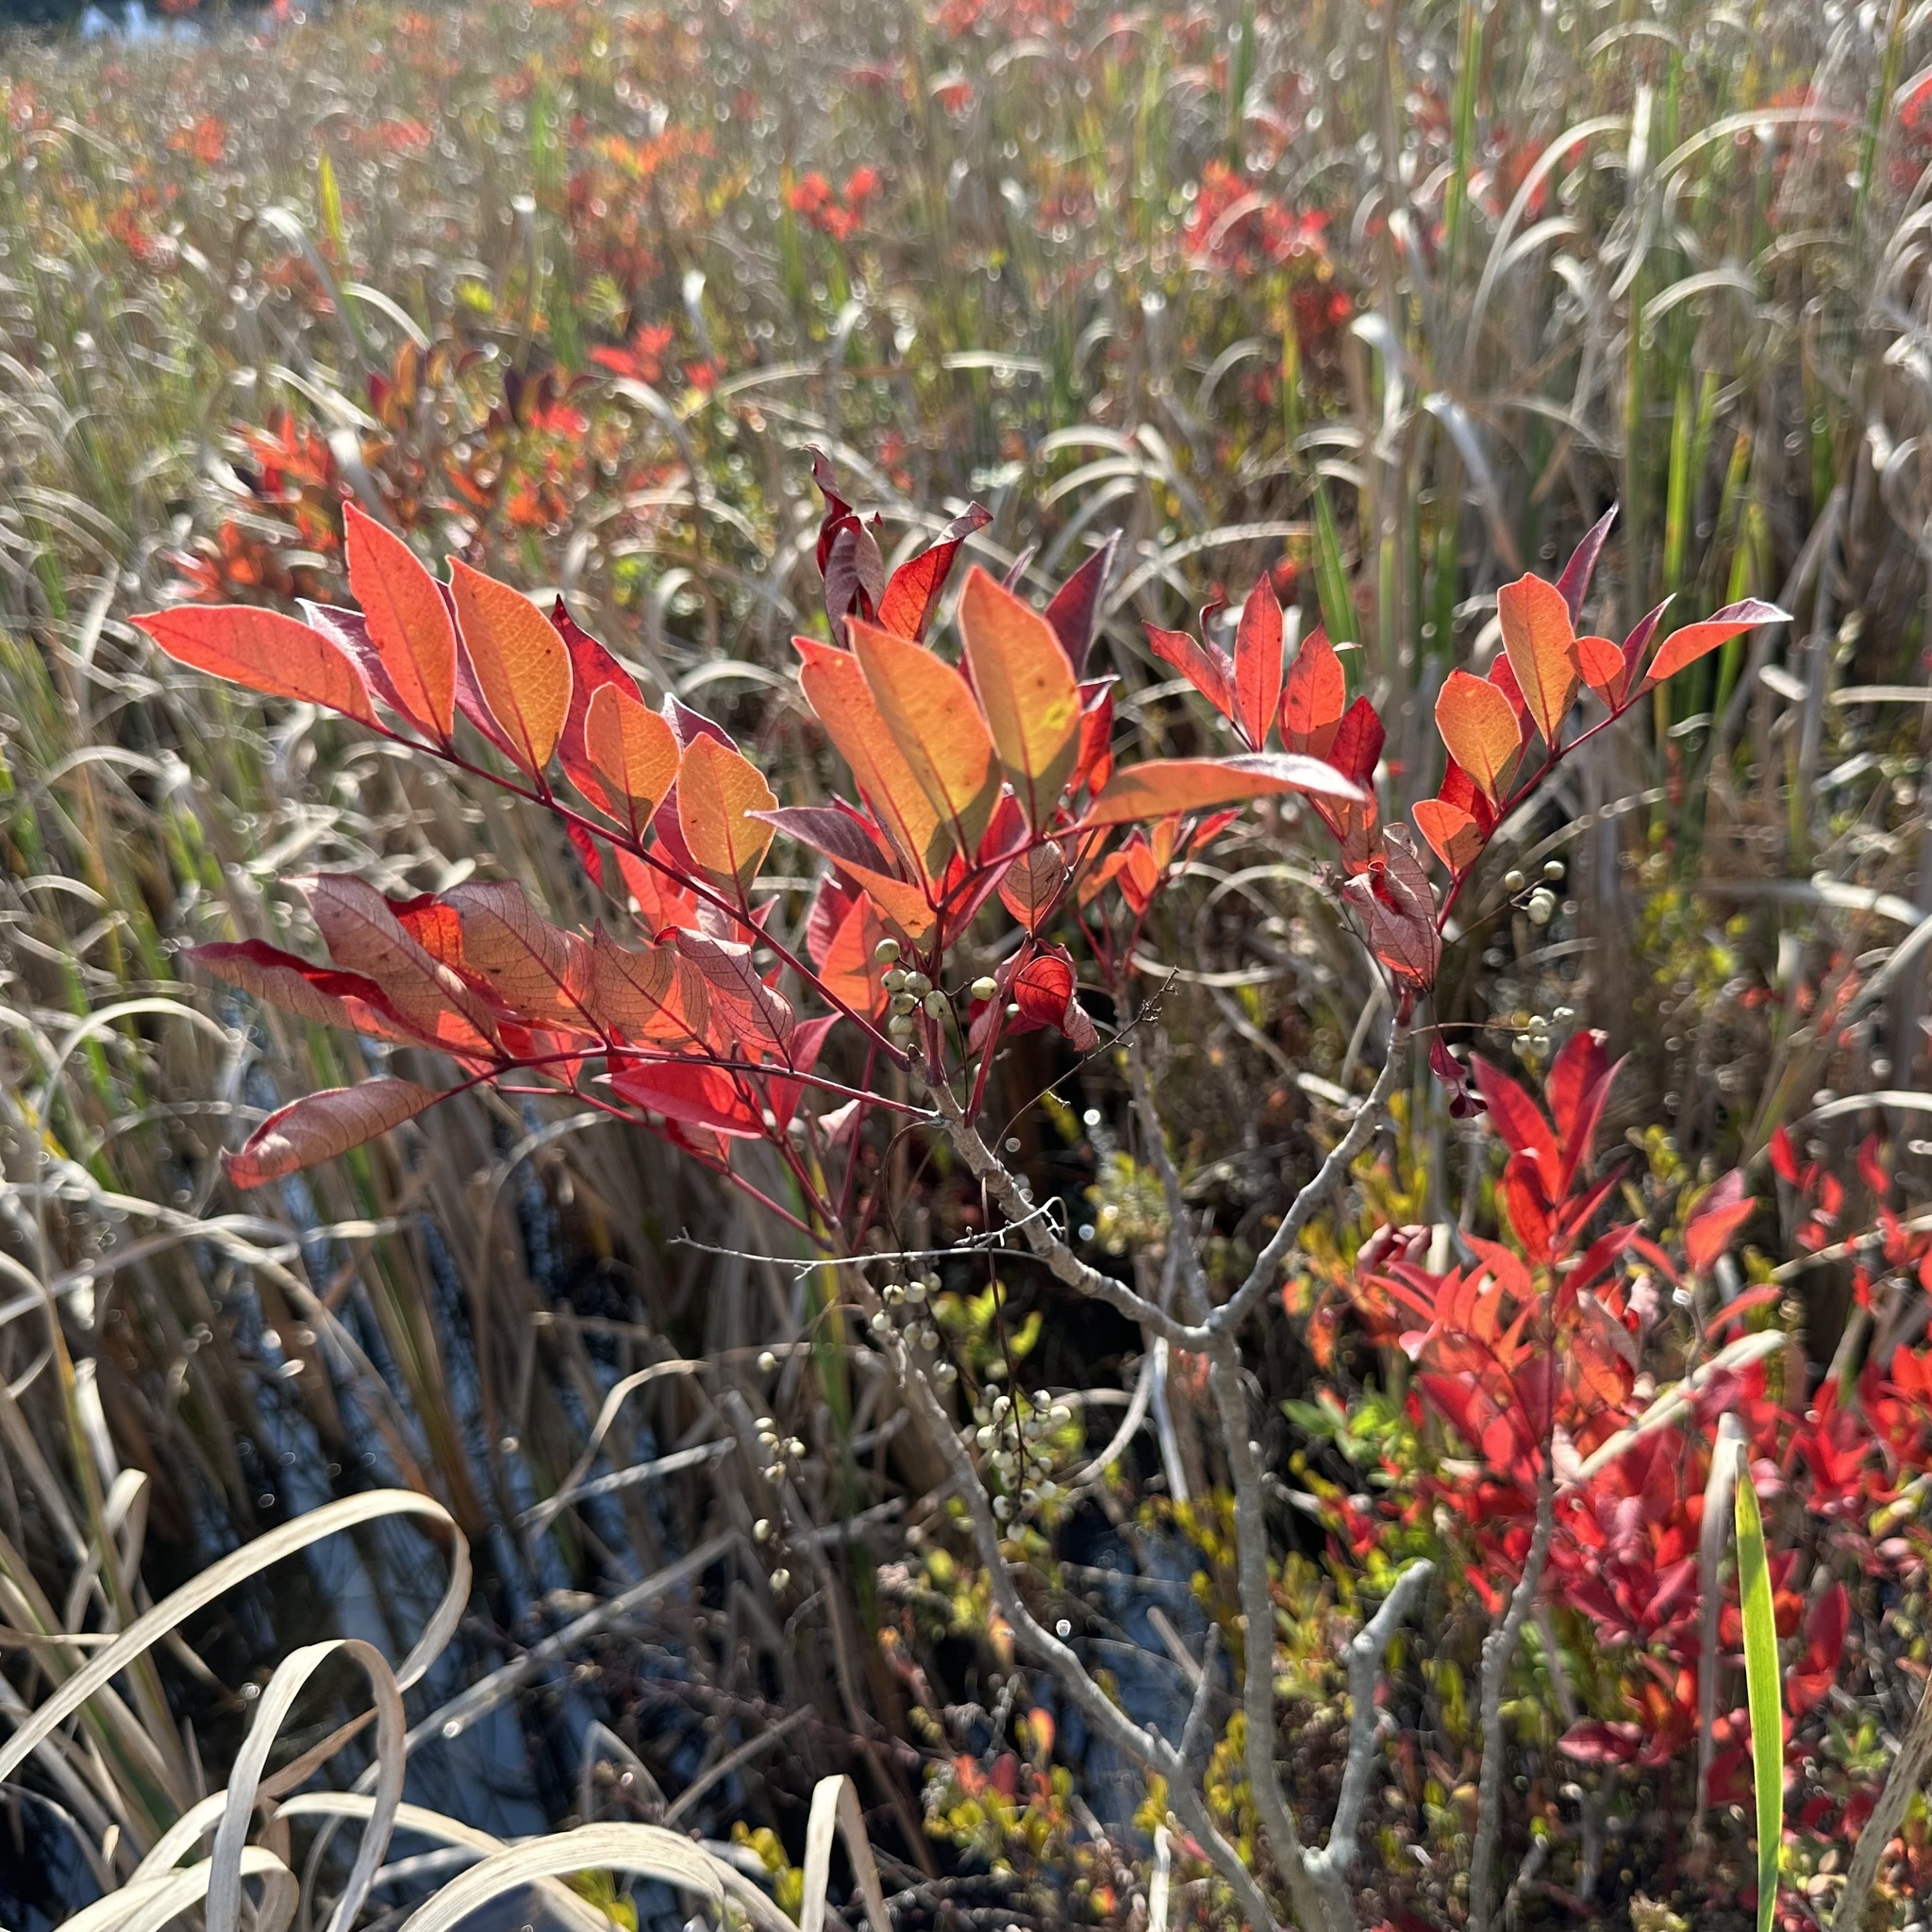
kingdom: Plantae
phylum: Tracheophyta
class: Magnoliopsida
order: Sapindales
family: Anacardiaceae
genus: Toxicodendron
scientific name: Toxicodendron vernix
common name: Poison sumac
